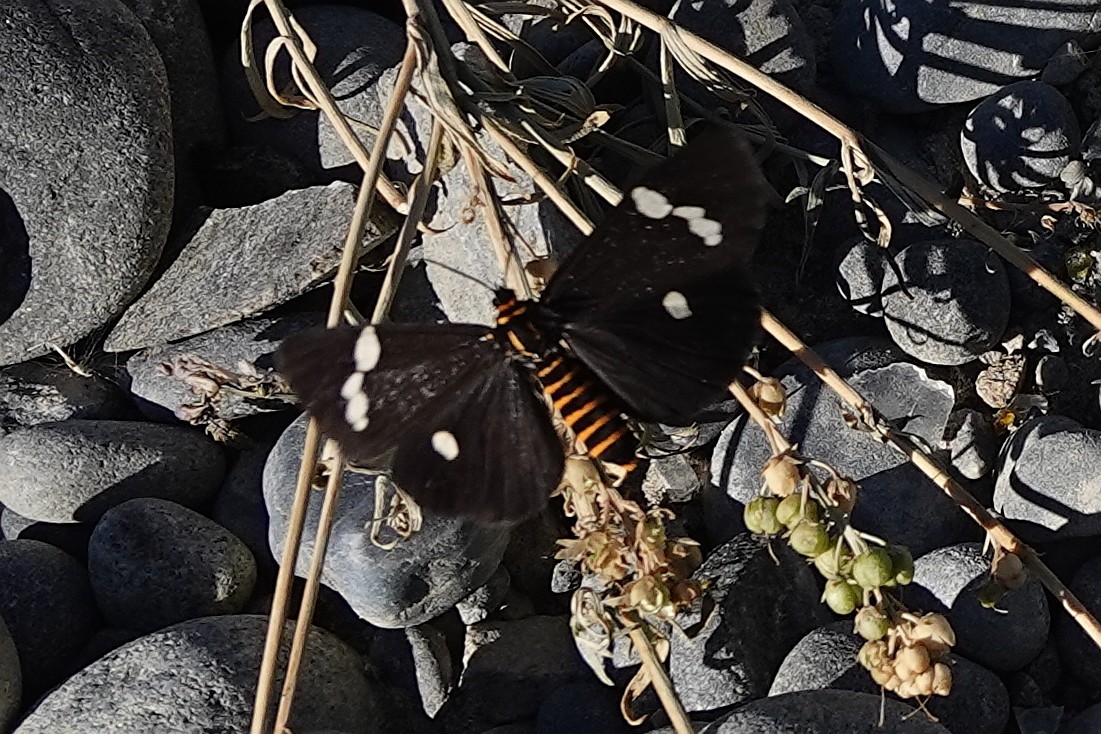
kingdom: Animalia
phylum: Arthropoda
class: Insecta
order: Lepidoptera
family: Erebidae
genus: Nyctemera
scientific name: Nyctemera annulatum
